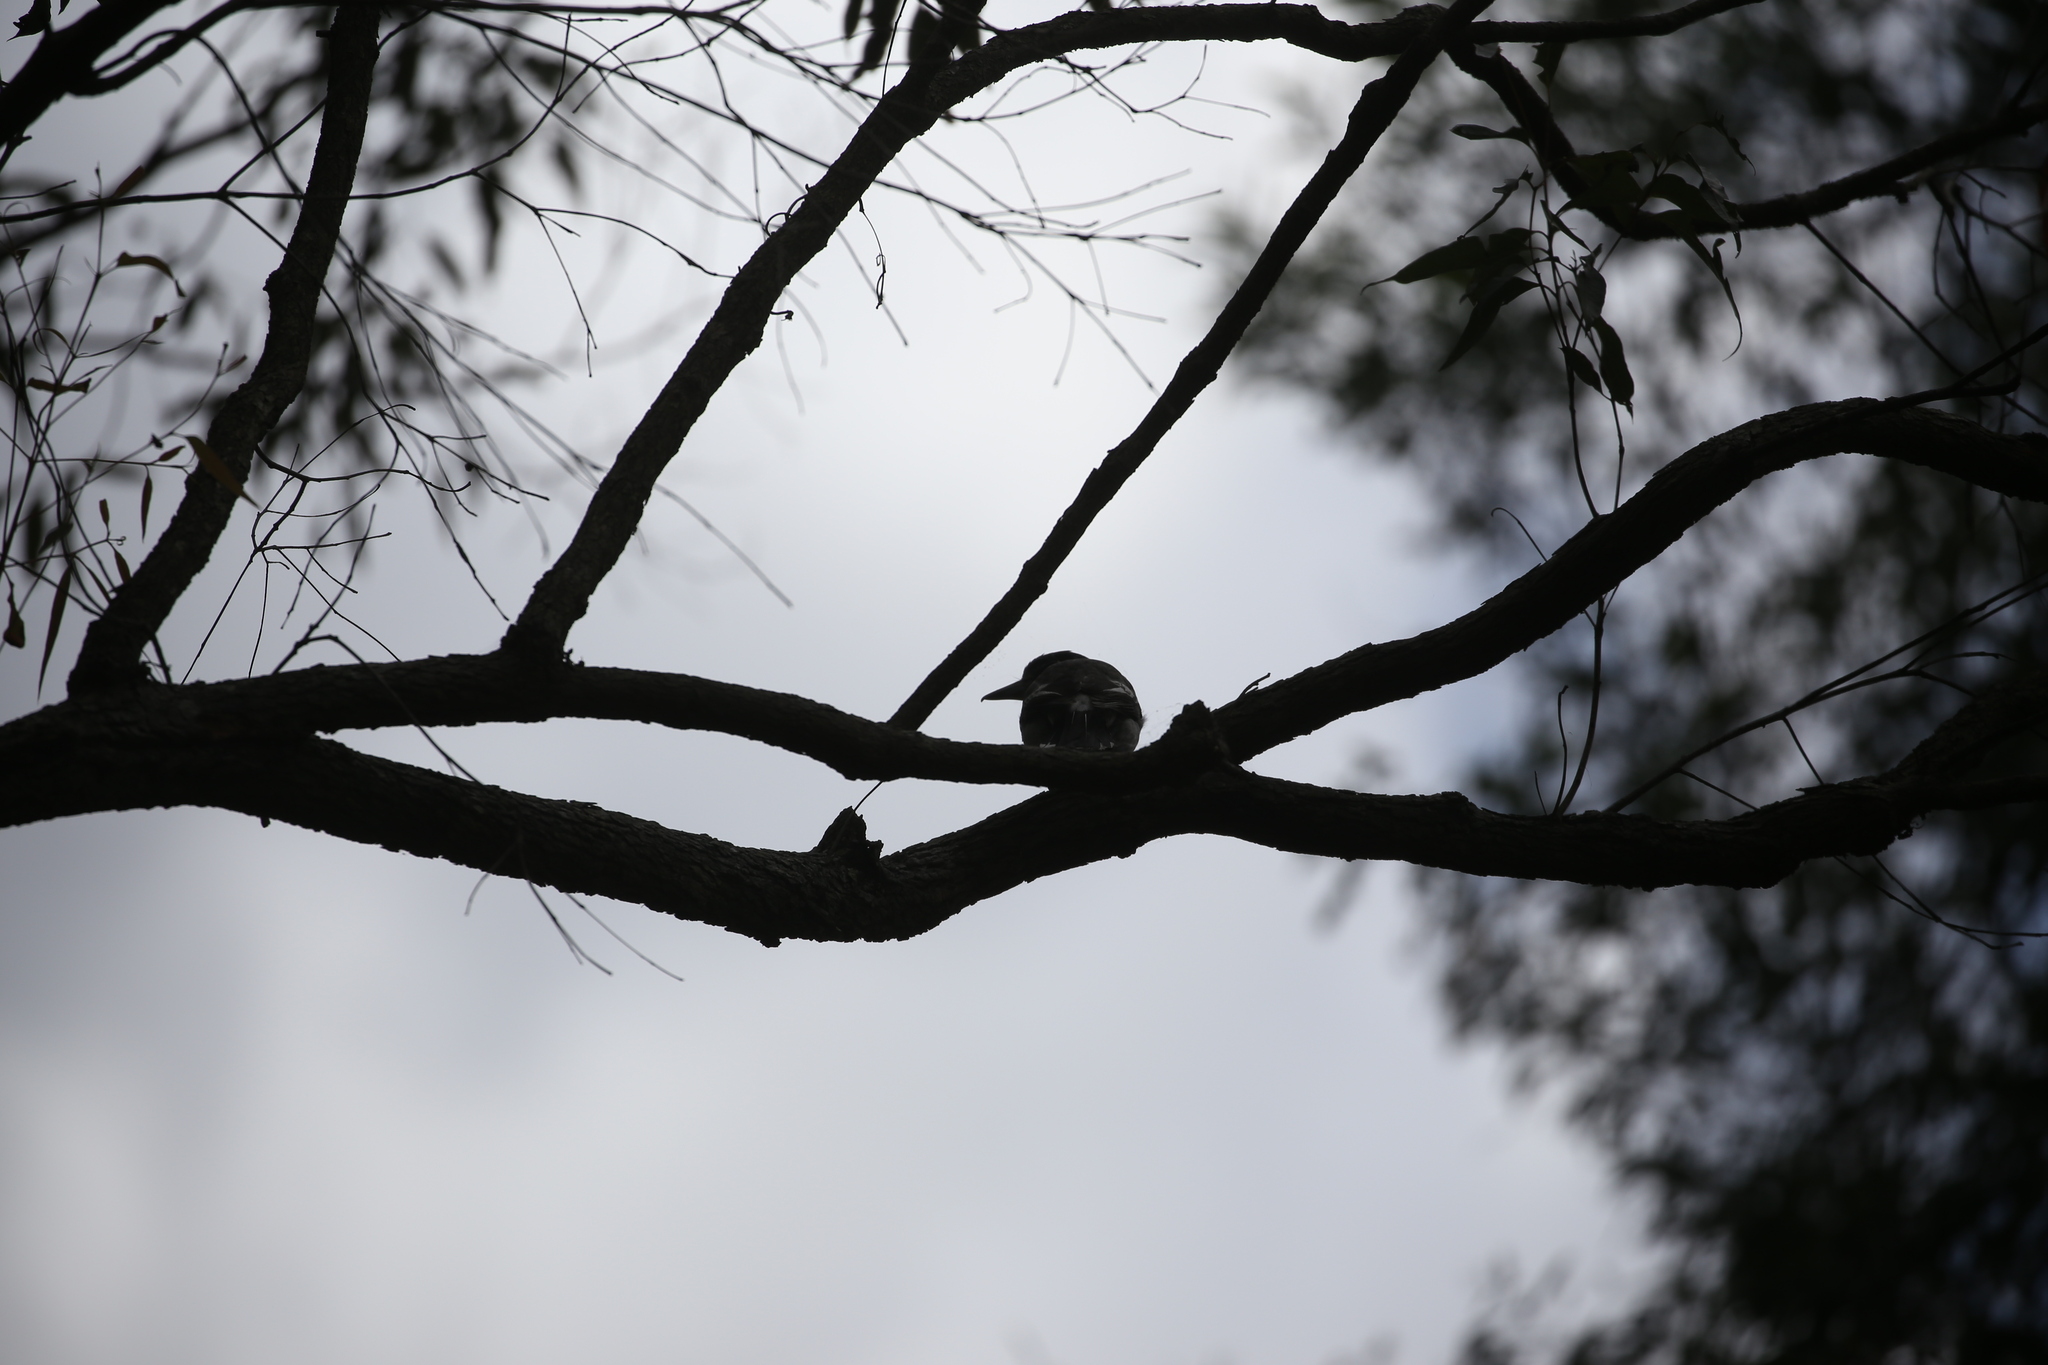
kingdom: Animalia
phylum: Chordata
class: Aves
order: Passeriformes
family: Cracticidae
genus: Cracticus
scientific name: Cracticus torquatus
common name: Grey butcherbird
